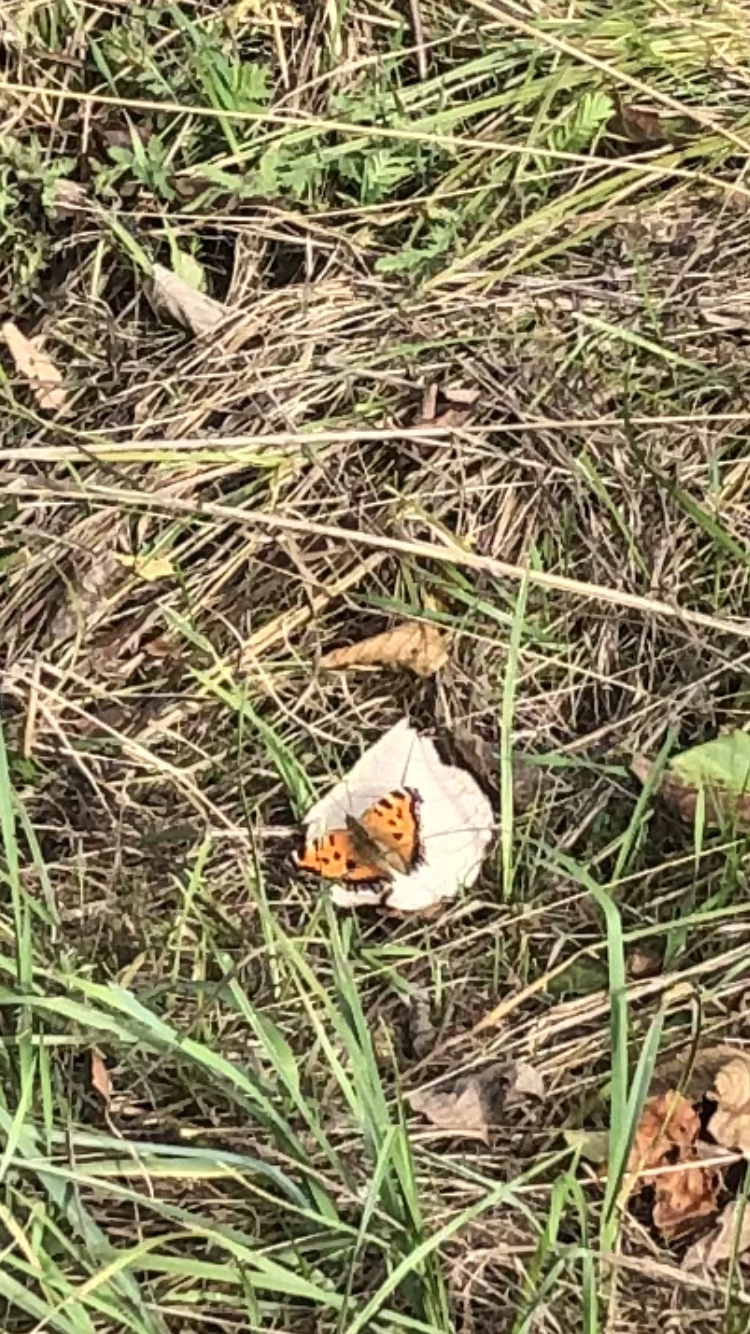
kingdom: Animalia
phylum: Arthropoda
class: Insecta
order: Lepidoptera
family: Nymphalidae
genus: Nymphalis
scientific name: Nymphalis xanthomelas
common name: Scarce tortoiseshell
